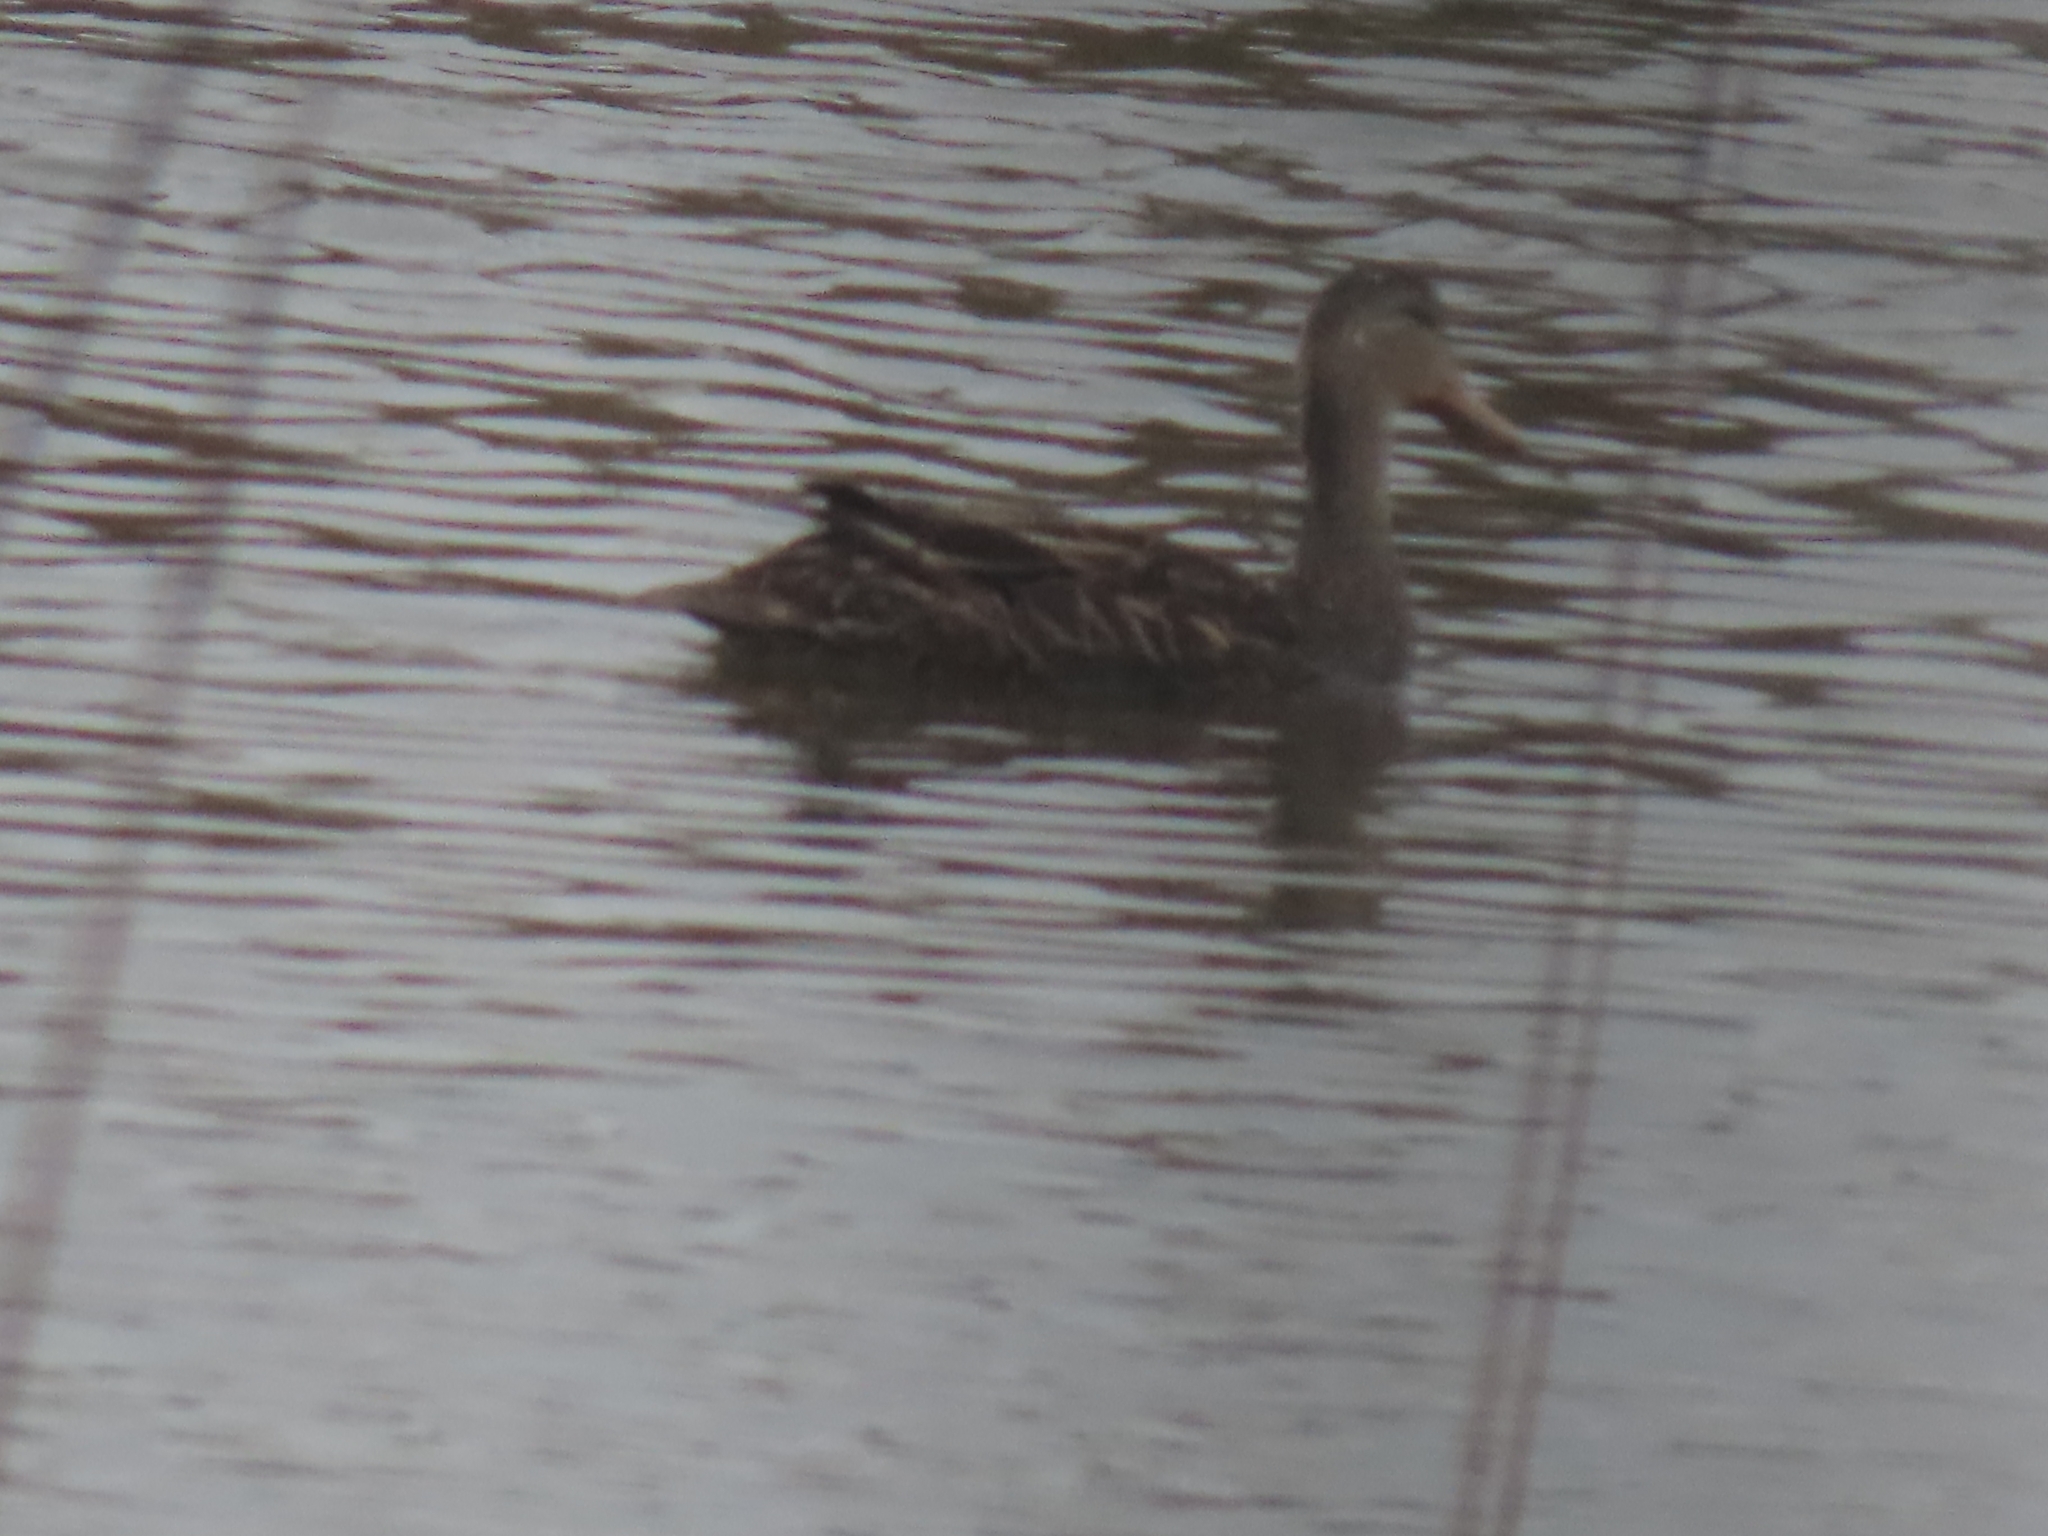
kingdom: Animalia
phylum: Chordata
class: Aves
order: Anseriformes
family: Anatidae
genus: Anas
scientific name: Anas fulvigula
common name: Mottled duck
